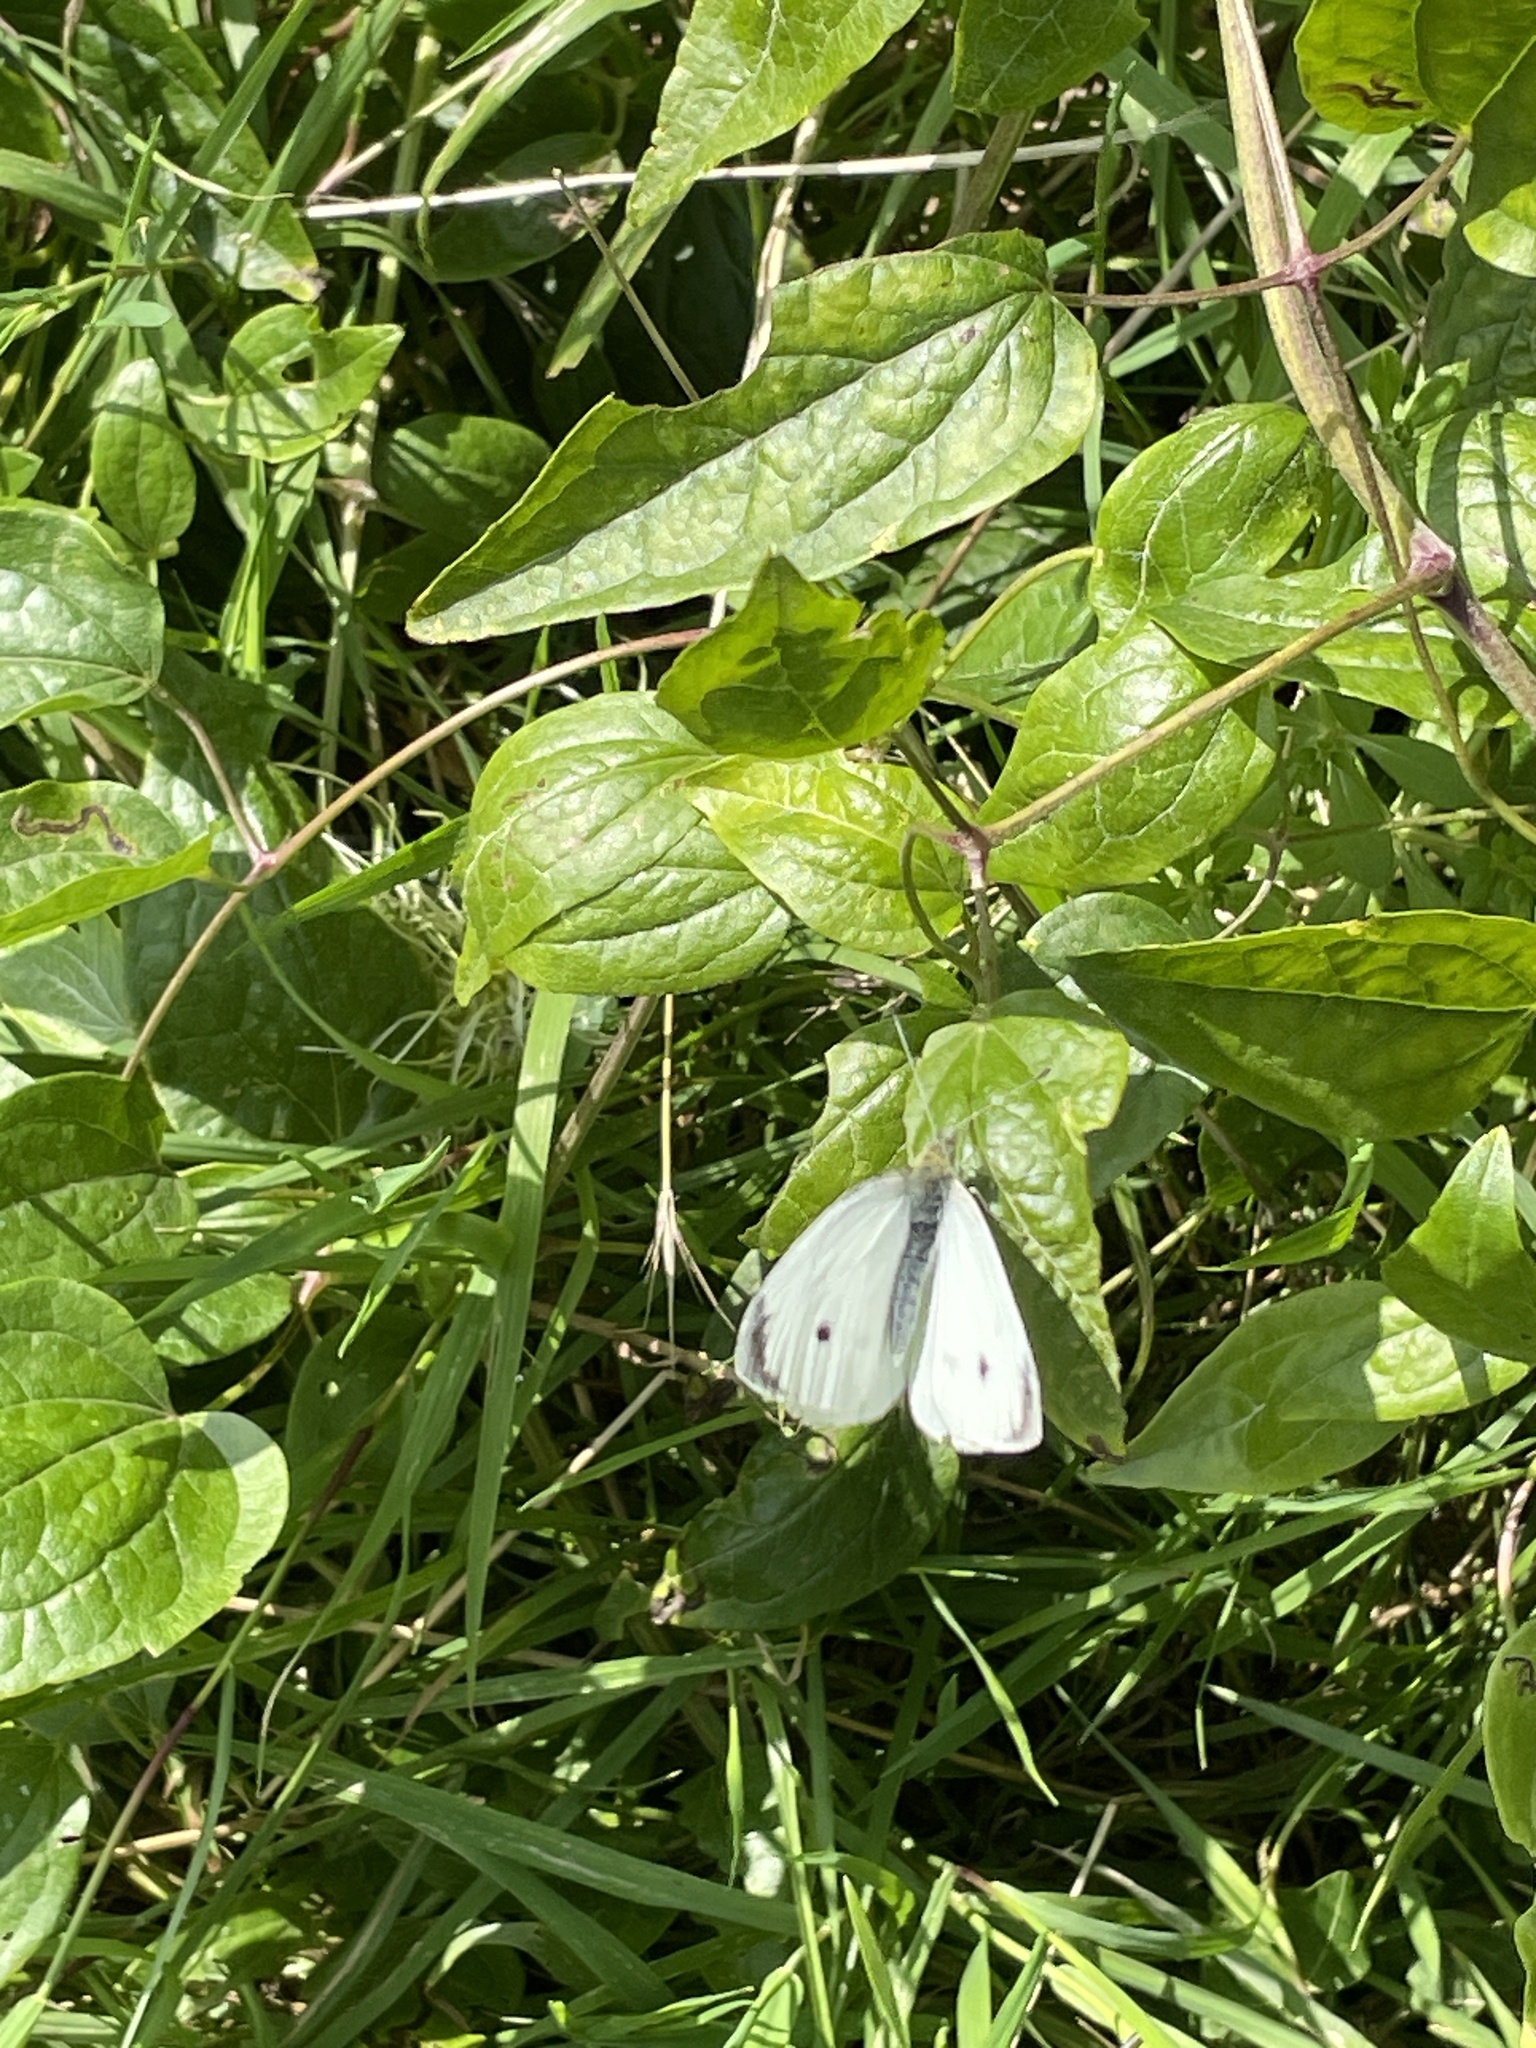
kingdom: Animalia
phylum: Arthropoda
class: Insecta
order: Lepidoptera
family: Pieridae
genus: Pieris
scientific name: Pieris rapae
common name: Small white
